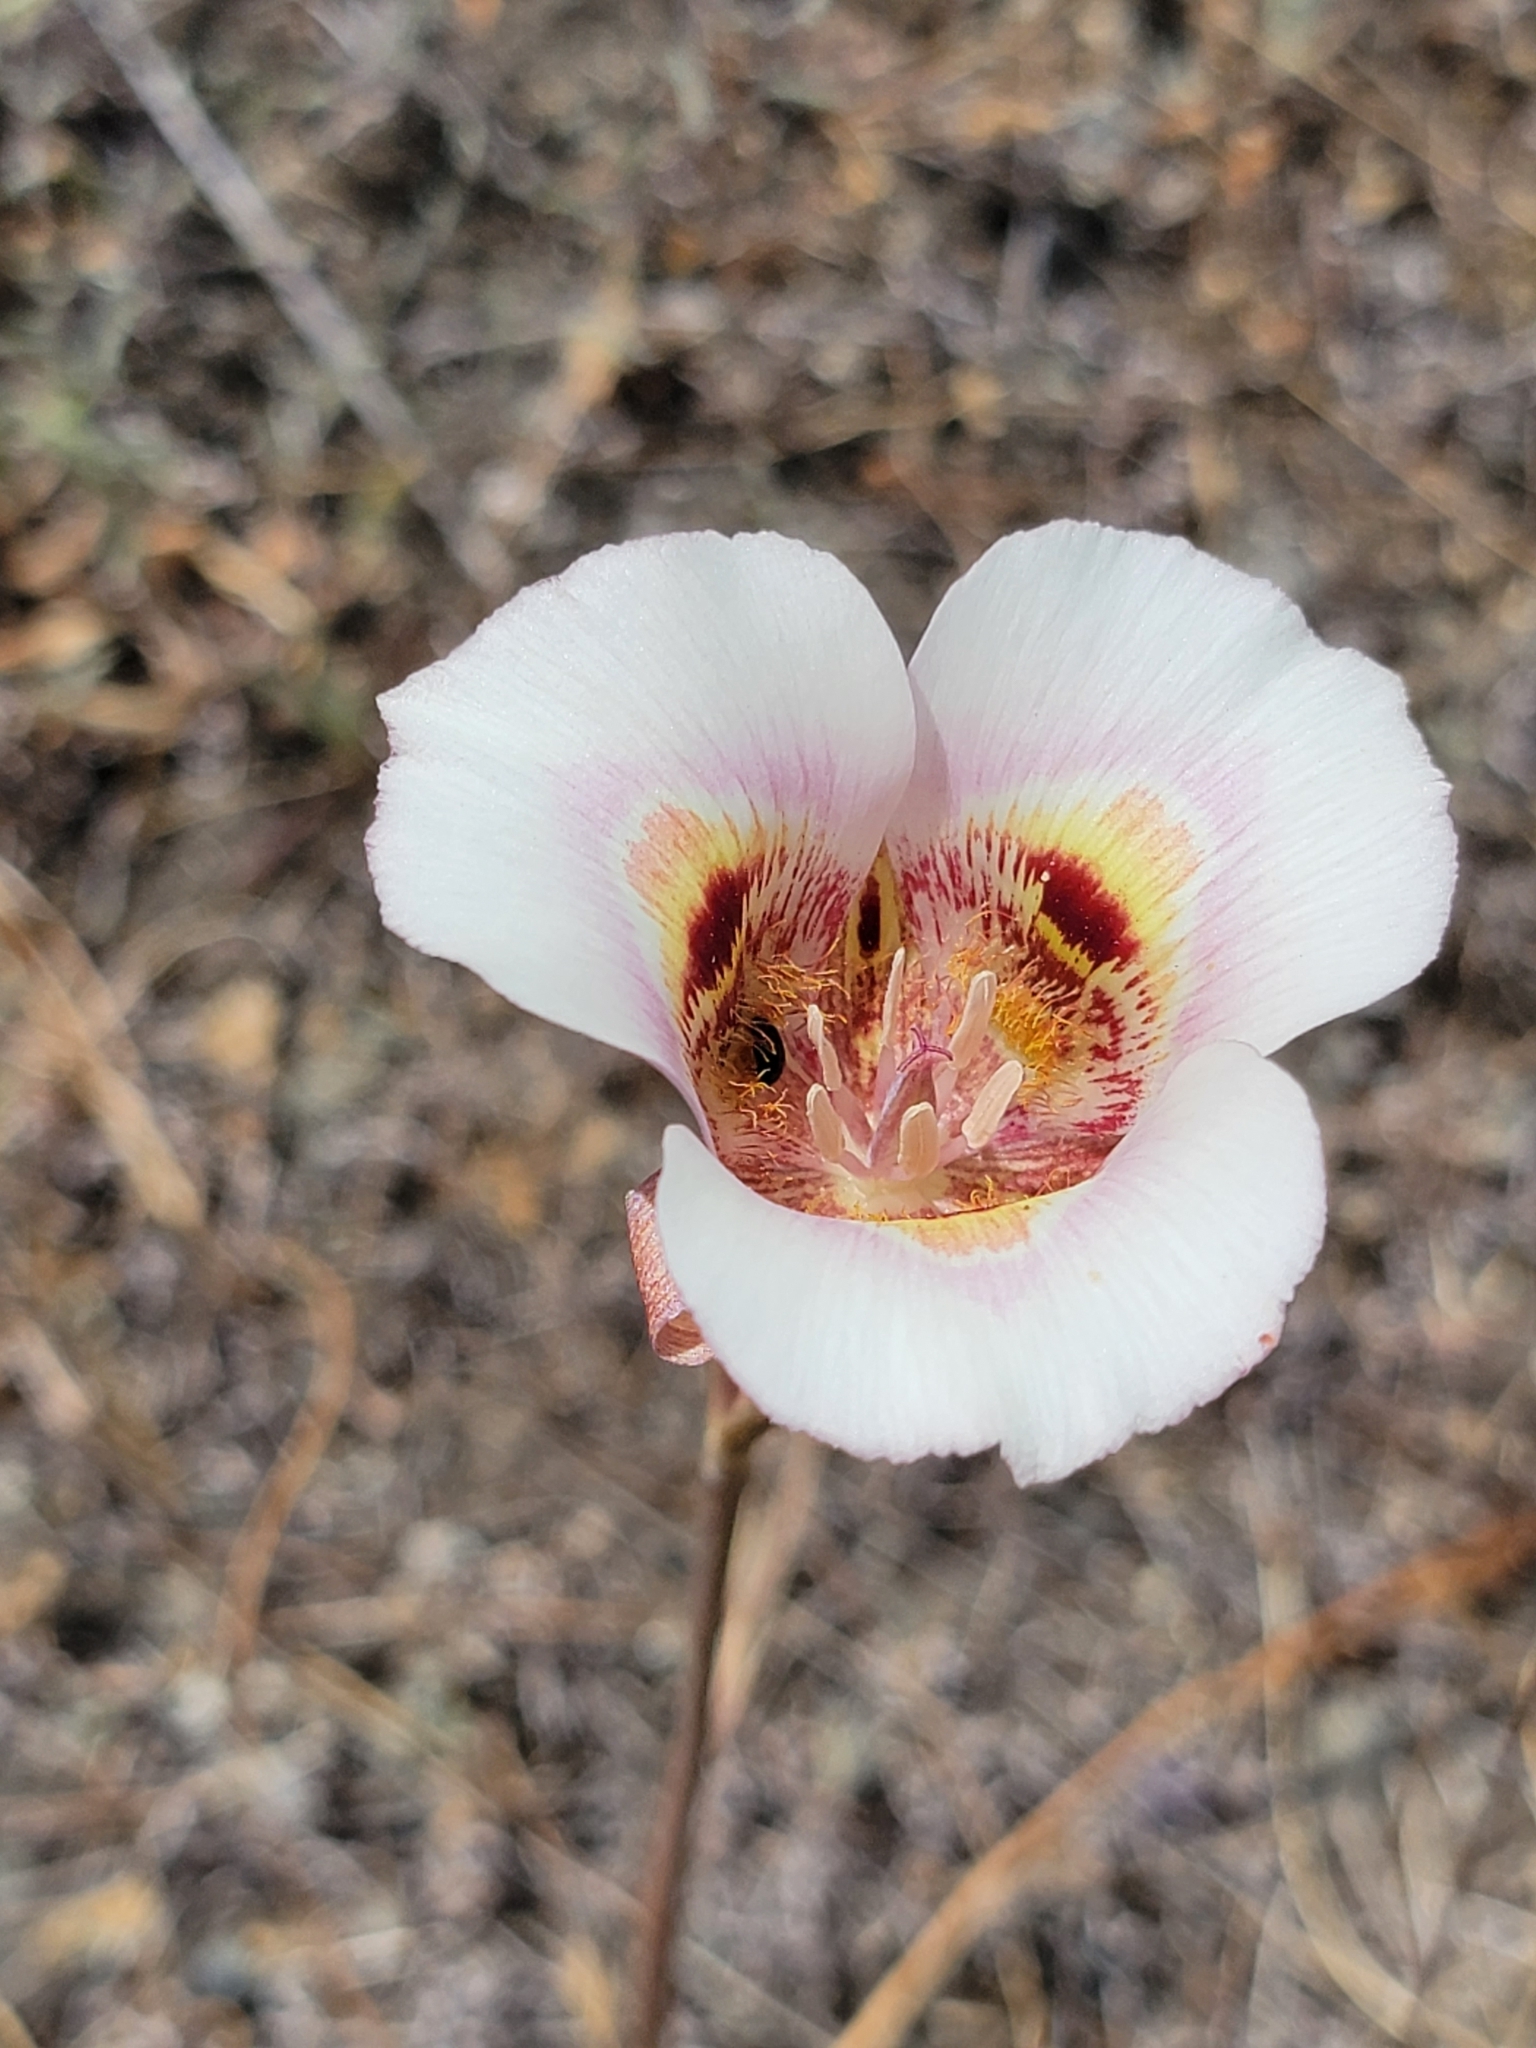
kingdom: Plantae
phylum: Tracheophyta
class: Liliopsida
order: Liliales
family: Liliaceae
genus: Calochortus
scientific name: Calochortus argillosus
